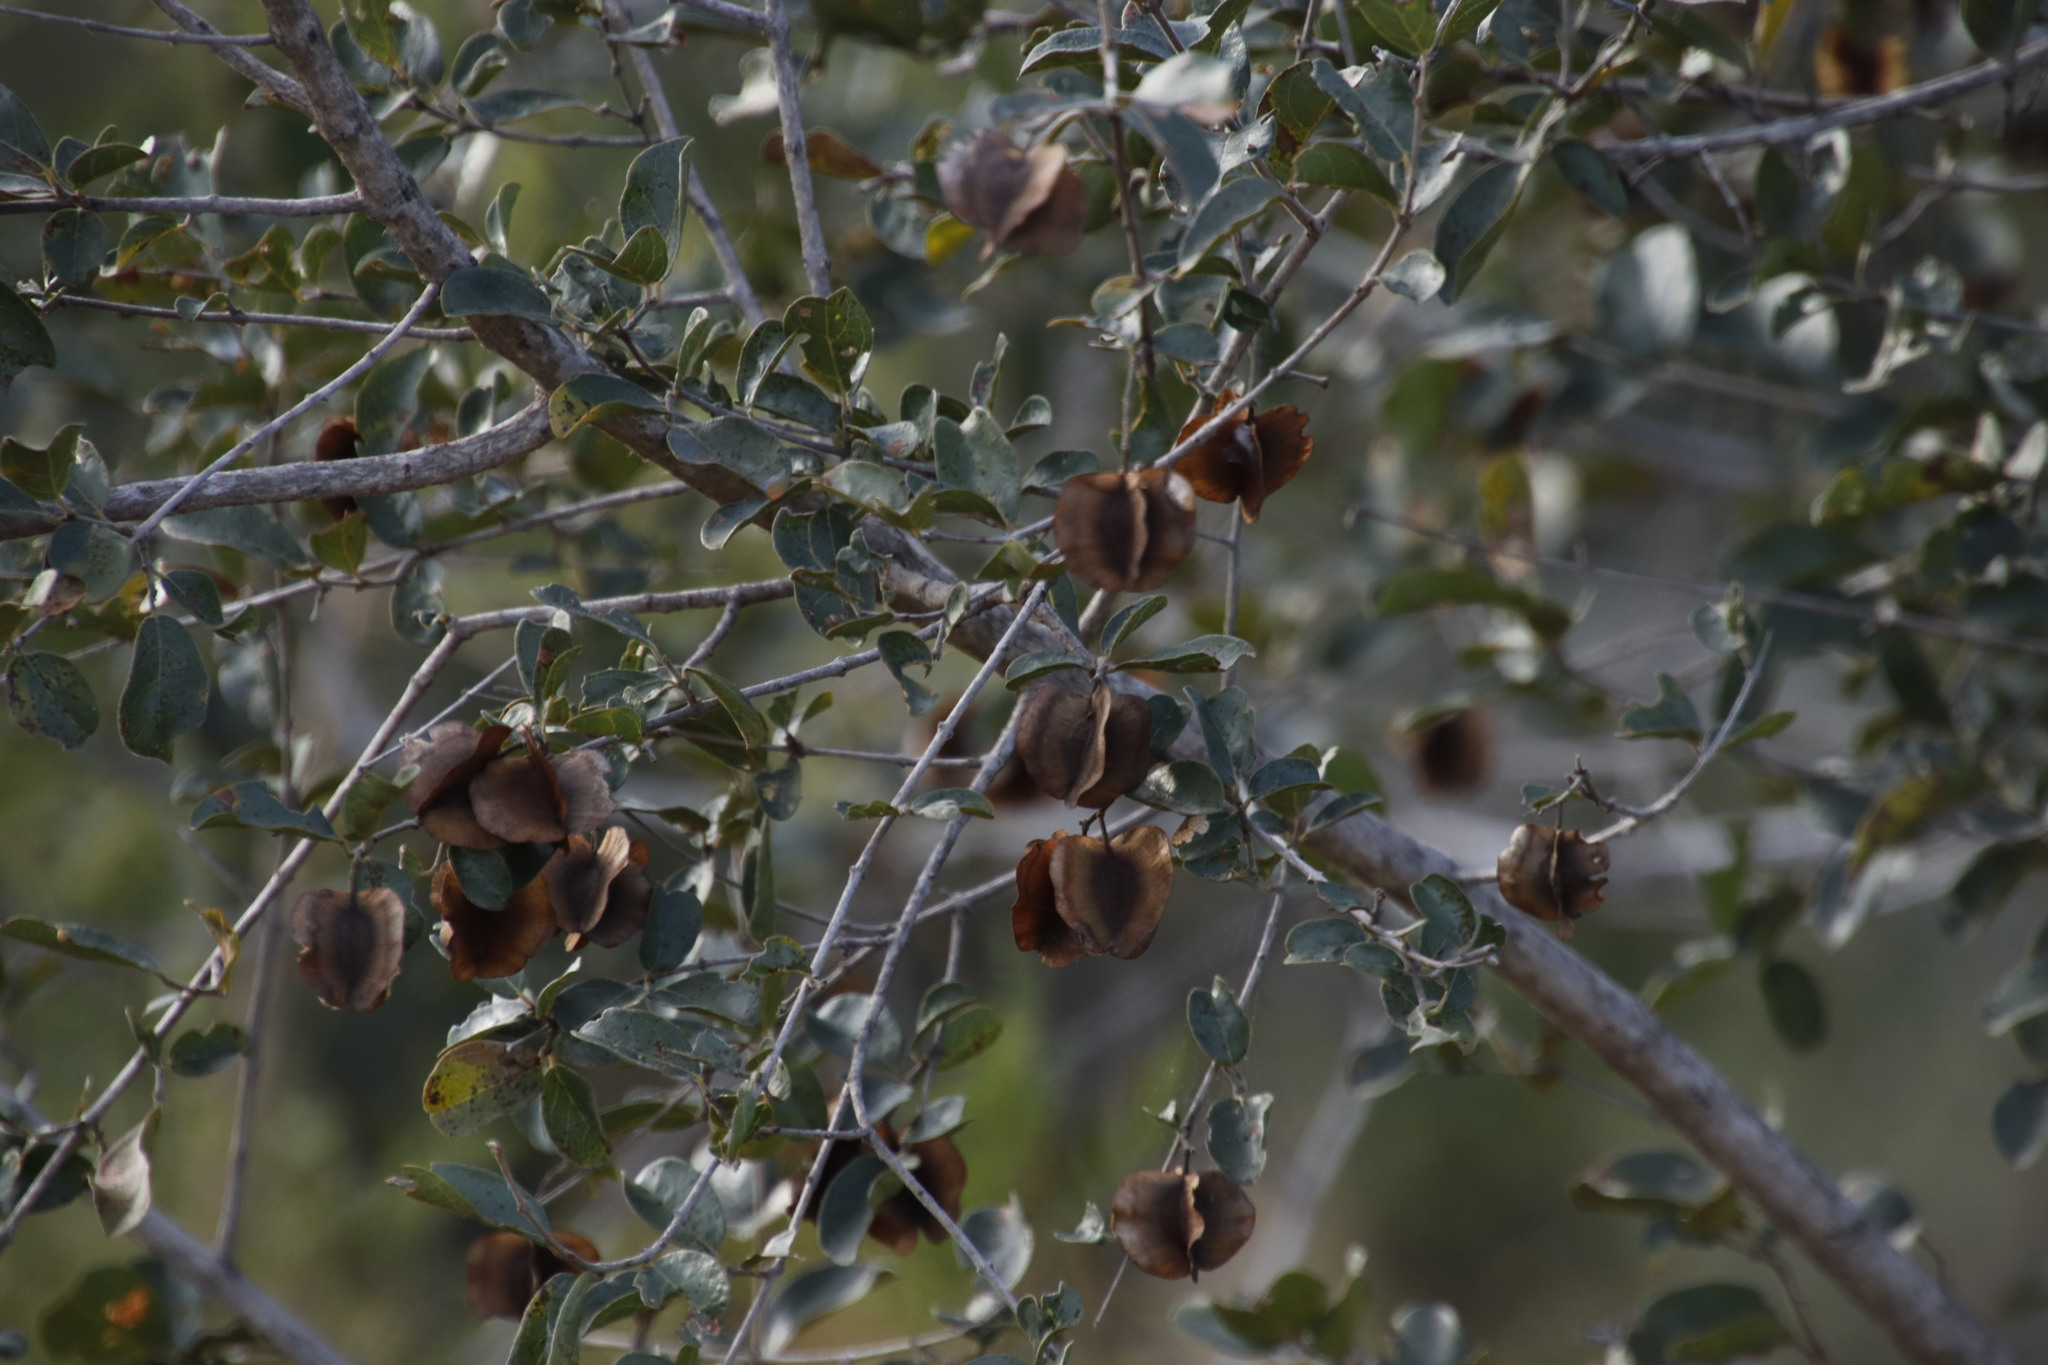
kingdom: Plantae
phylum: Tracheophyta
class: Magnoliopsida
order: Myrtales
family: Combretaceae
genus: Combretum
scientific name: Combretum hereroense
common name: Russet bushwillow
